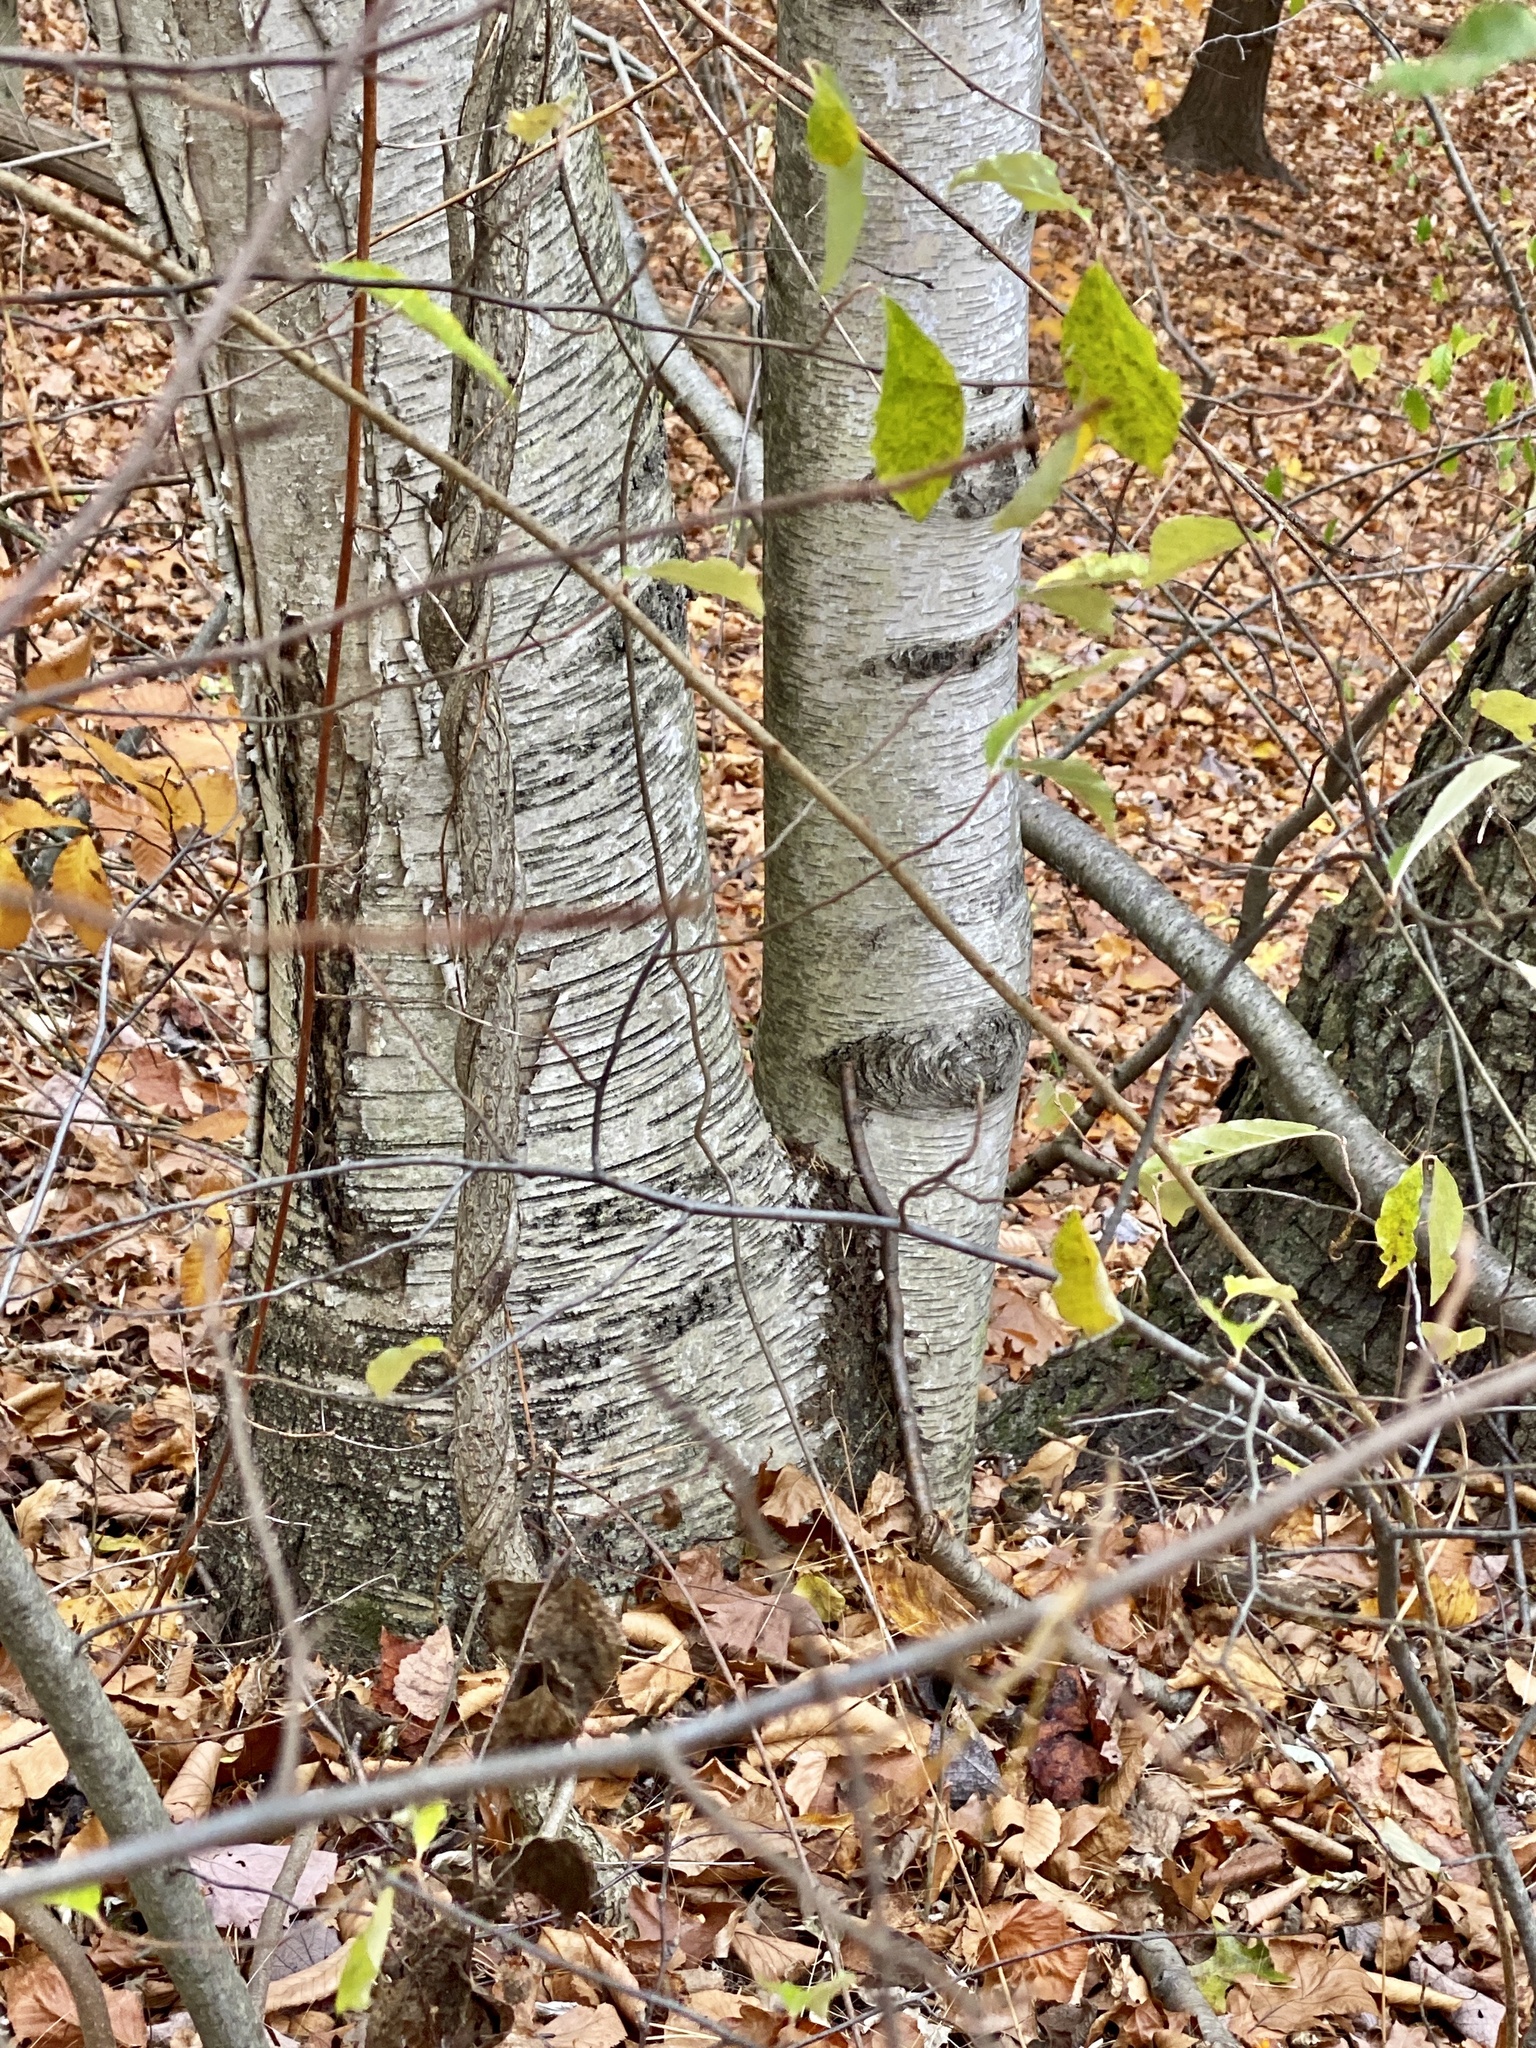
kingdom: Plantae
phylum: Tracheophyta
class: Magnoliopsida
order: Fagales
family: Betulaceae
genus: Betula
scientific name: Betula papyrifera
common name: Paper birch
